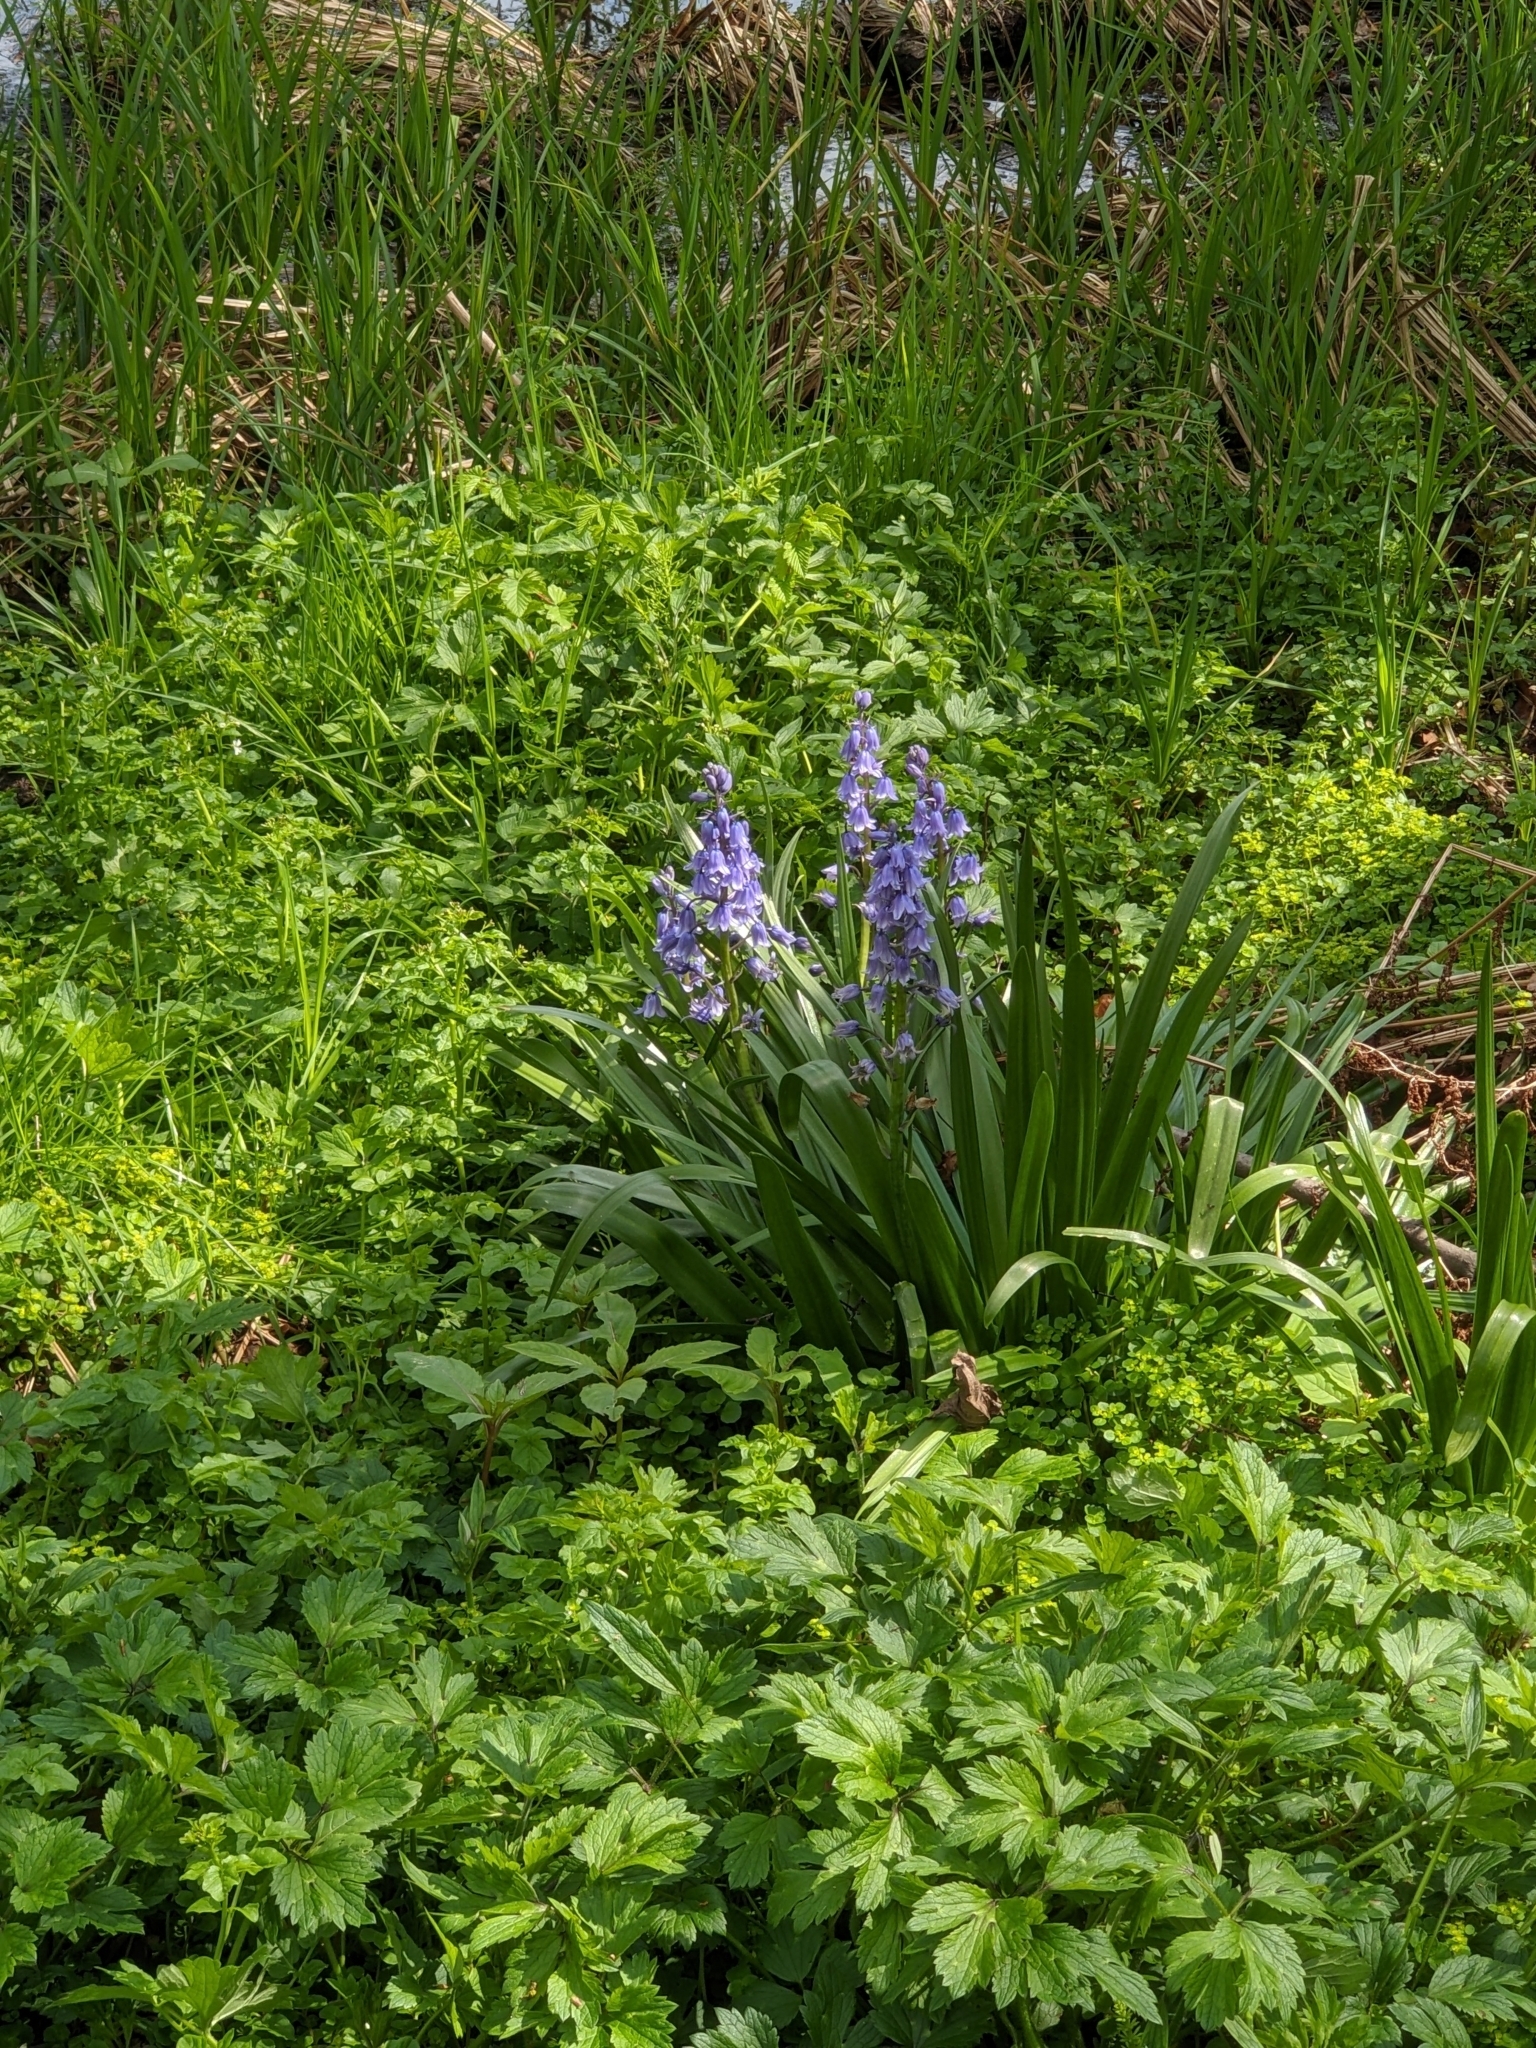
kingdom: Plantae
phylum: Tracheophyta
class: Liliopsida
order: Asparagales
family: Asparagaceae
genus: Hyacinthoides
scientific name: Hyacinthoides hispanica
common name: Spanish bluebell
